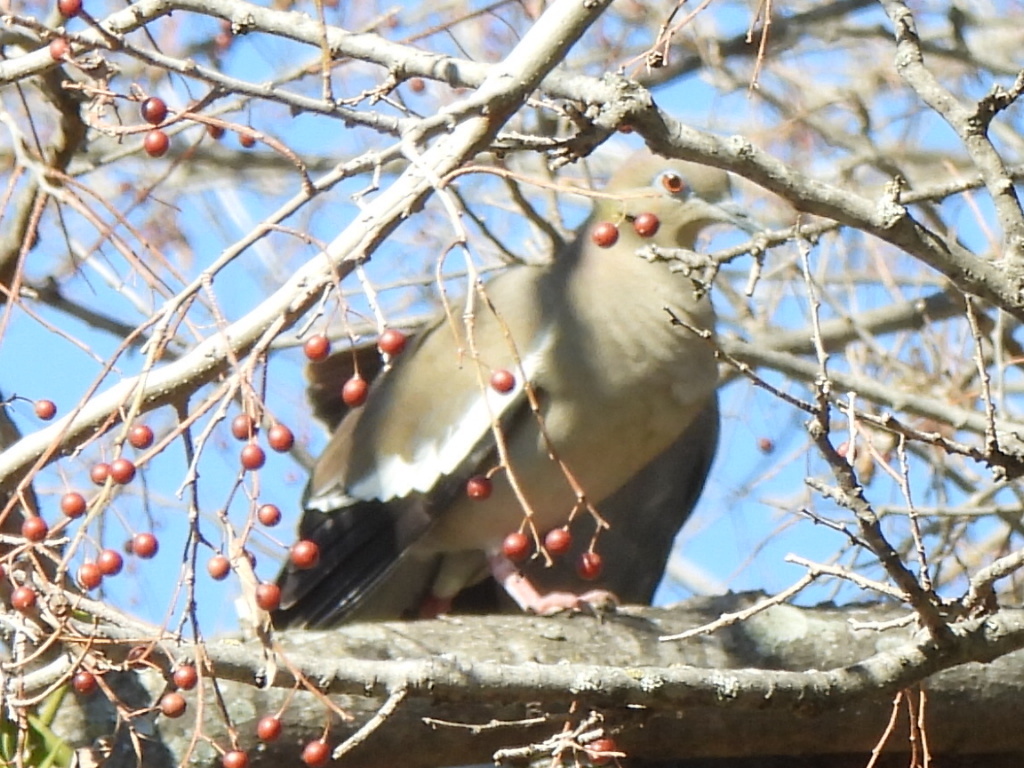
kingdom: Animalia
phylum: Chordata
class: Aves
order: Columbiformes
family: Columbidae
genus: Zenaida
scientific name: Zenaida asiatica
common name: White-winged dove
